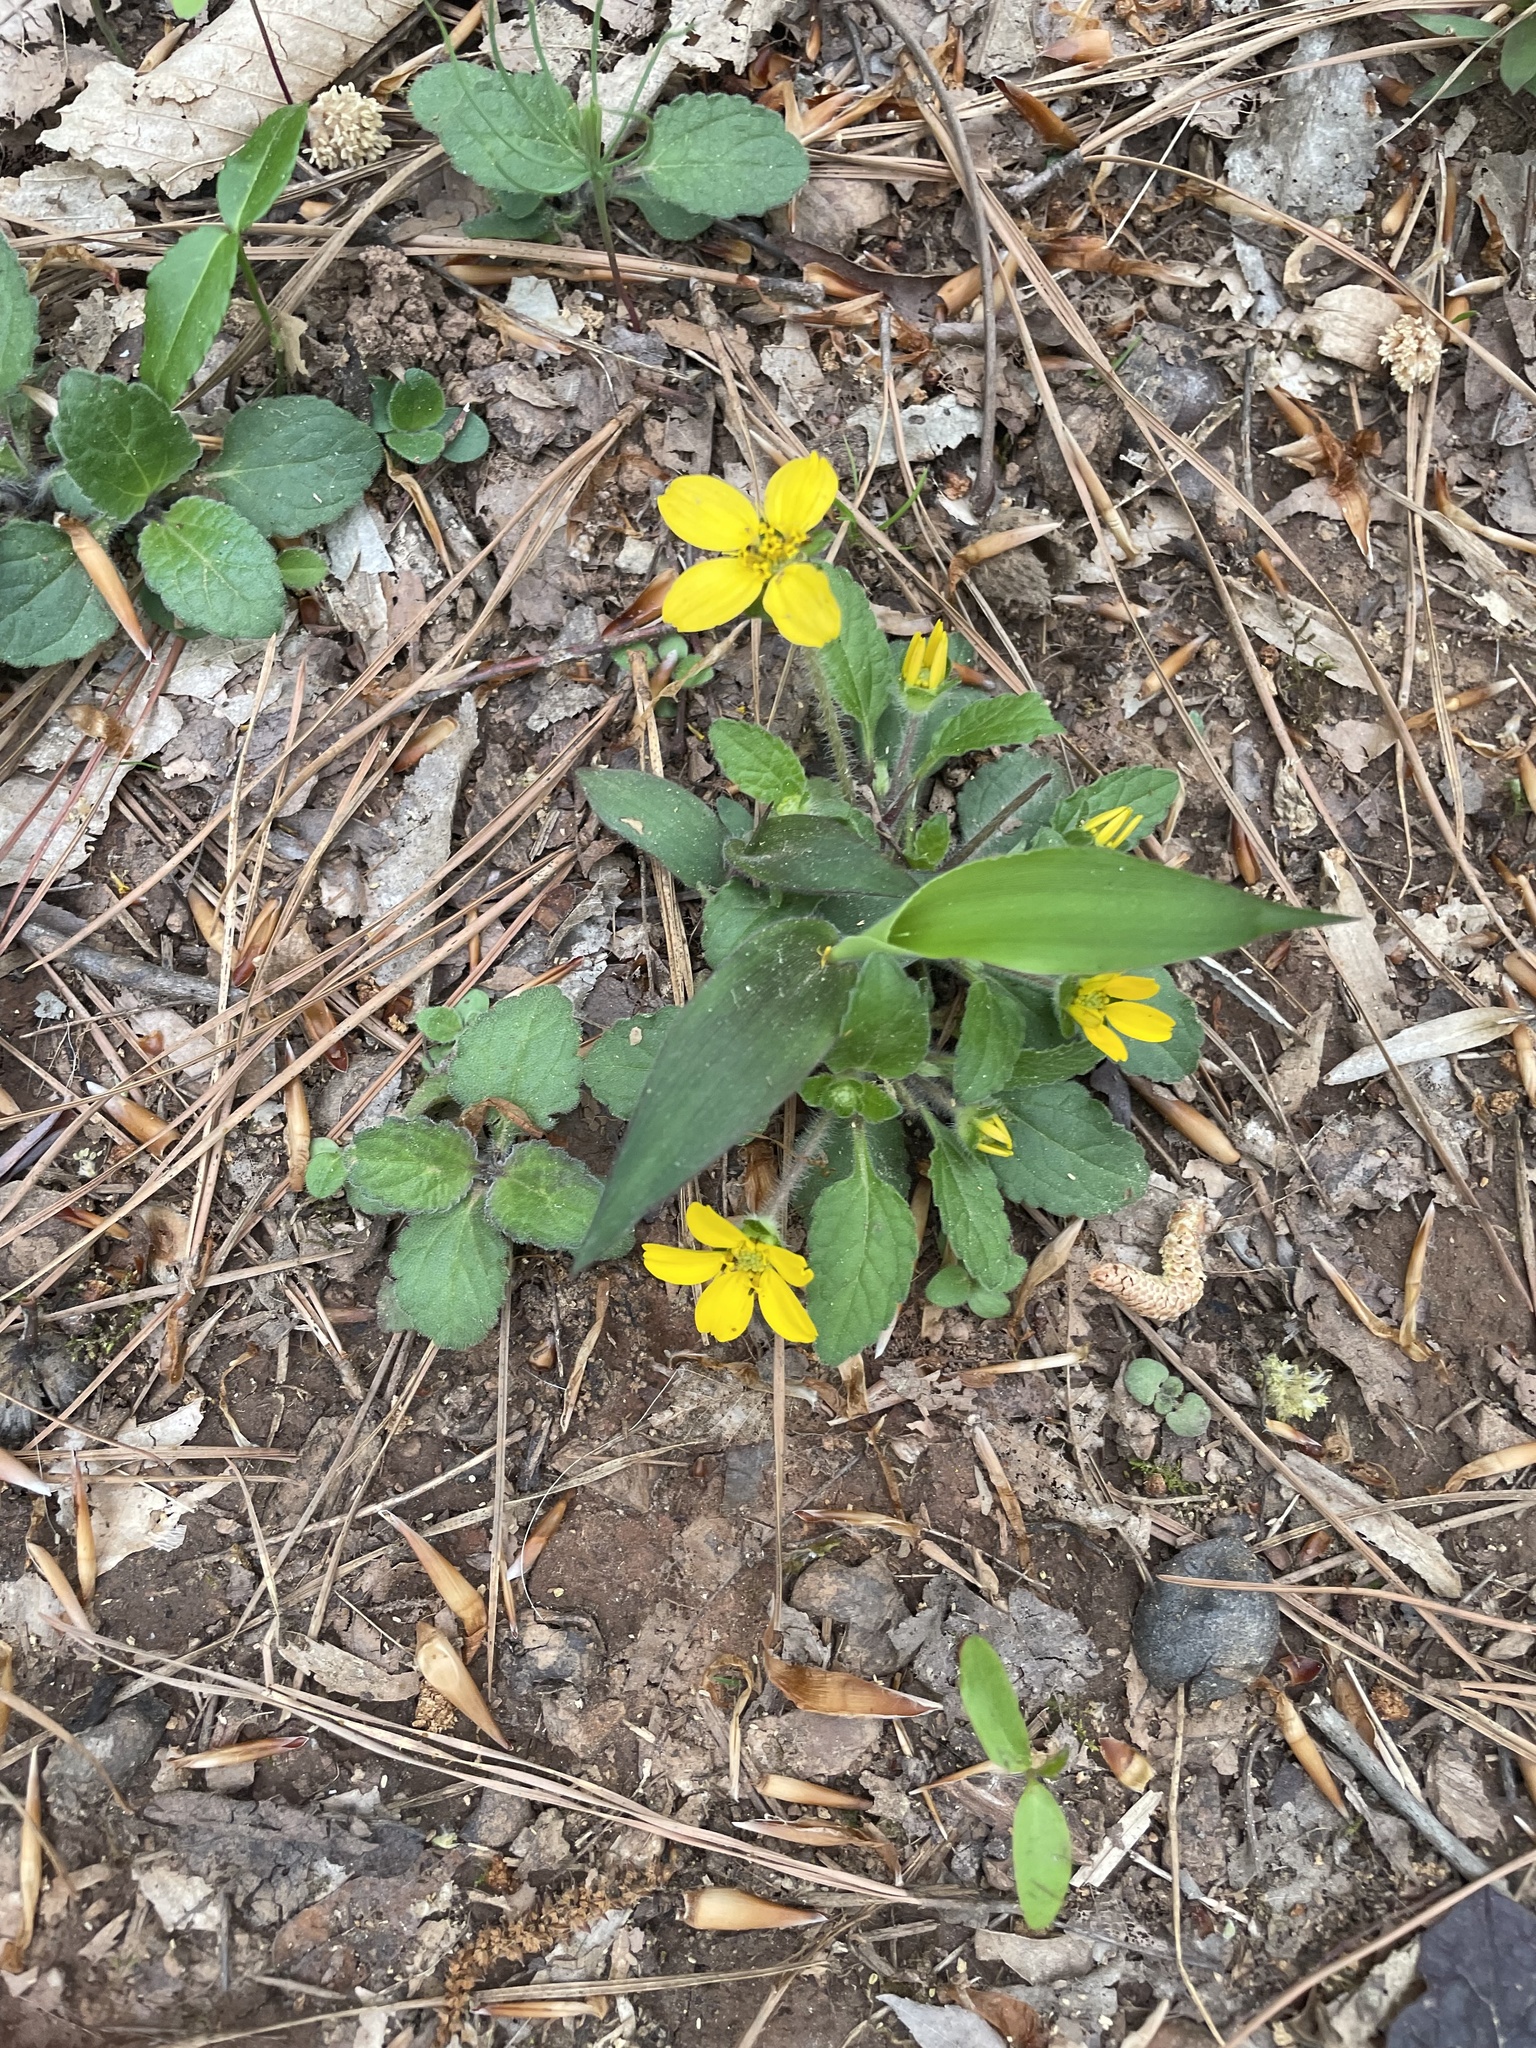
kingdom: Plantae
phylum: Tracheophyta
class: Magnoliopsida
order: Asterales
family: Asteraceae
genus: Chrysogonum
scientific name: Chrysogonum virginianum
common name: Golden-knee
